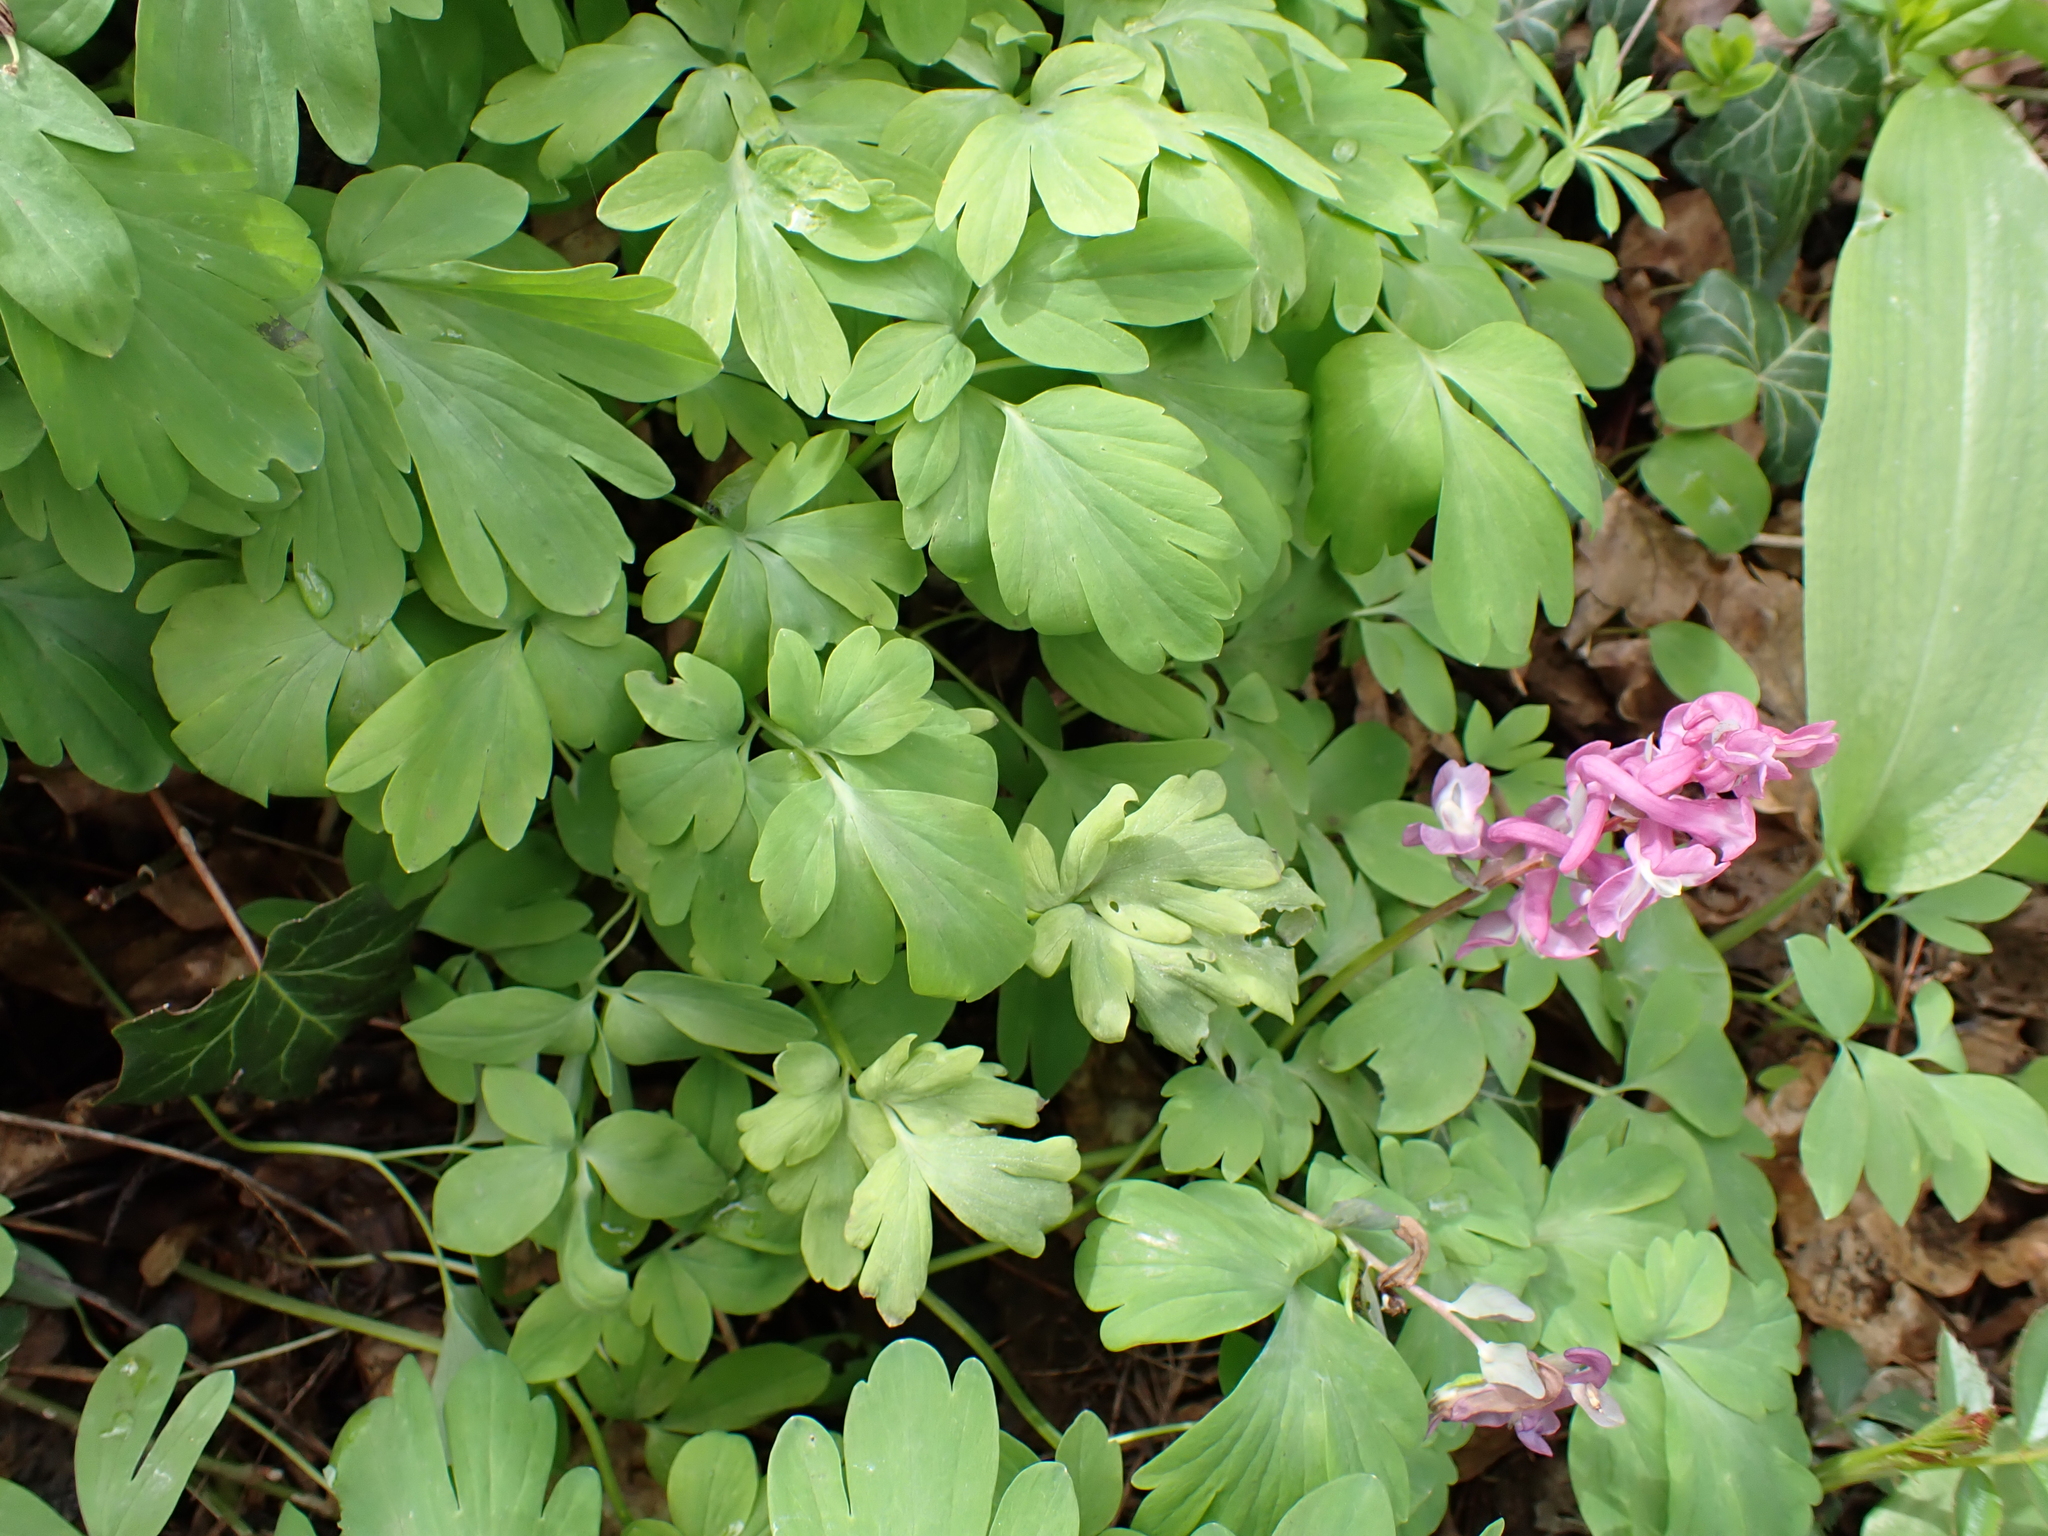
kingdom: Plantae
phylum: Tracheophyta
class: Magnoliopsida
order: Ranunculales
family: Papaveraceae
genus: Corydalis
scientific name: Corydalis cava
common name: Hollowroot
